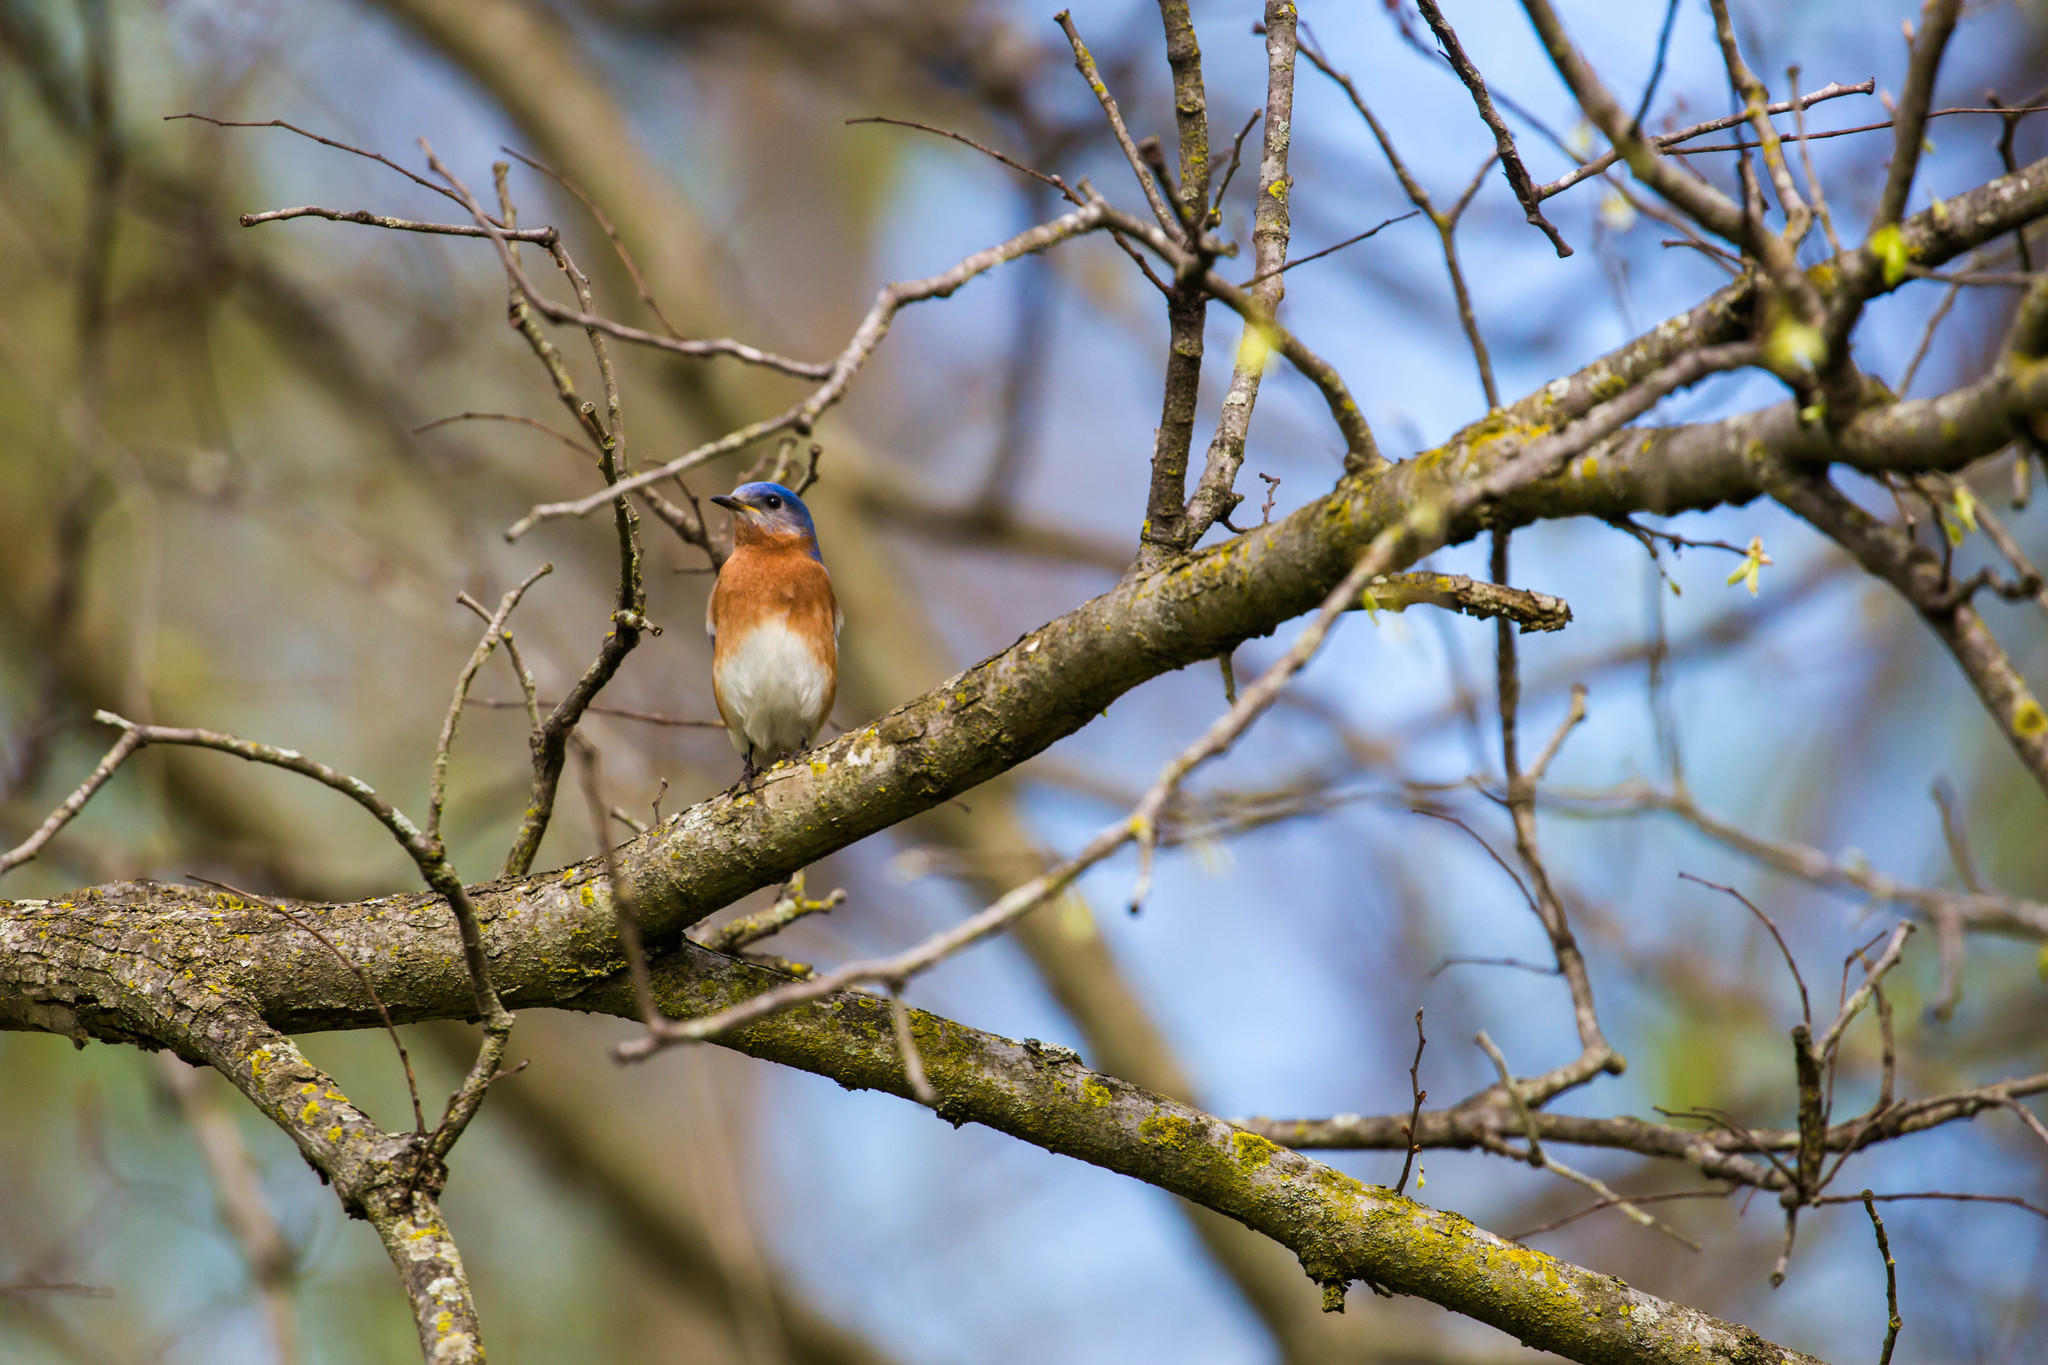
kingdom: Animalia
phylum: Chordata
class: Aves
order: Passeriformes
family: Turdidae
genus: Sialia
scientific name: Sialia sialis
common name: Eastern bluebird
